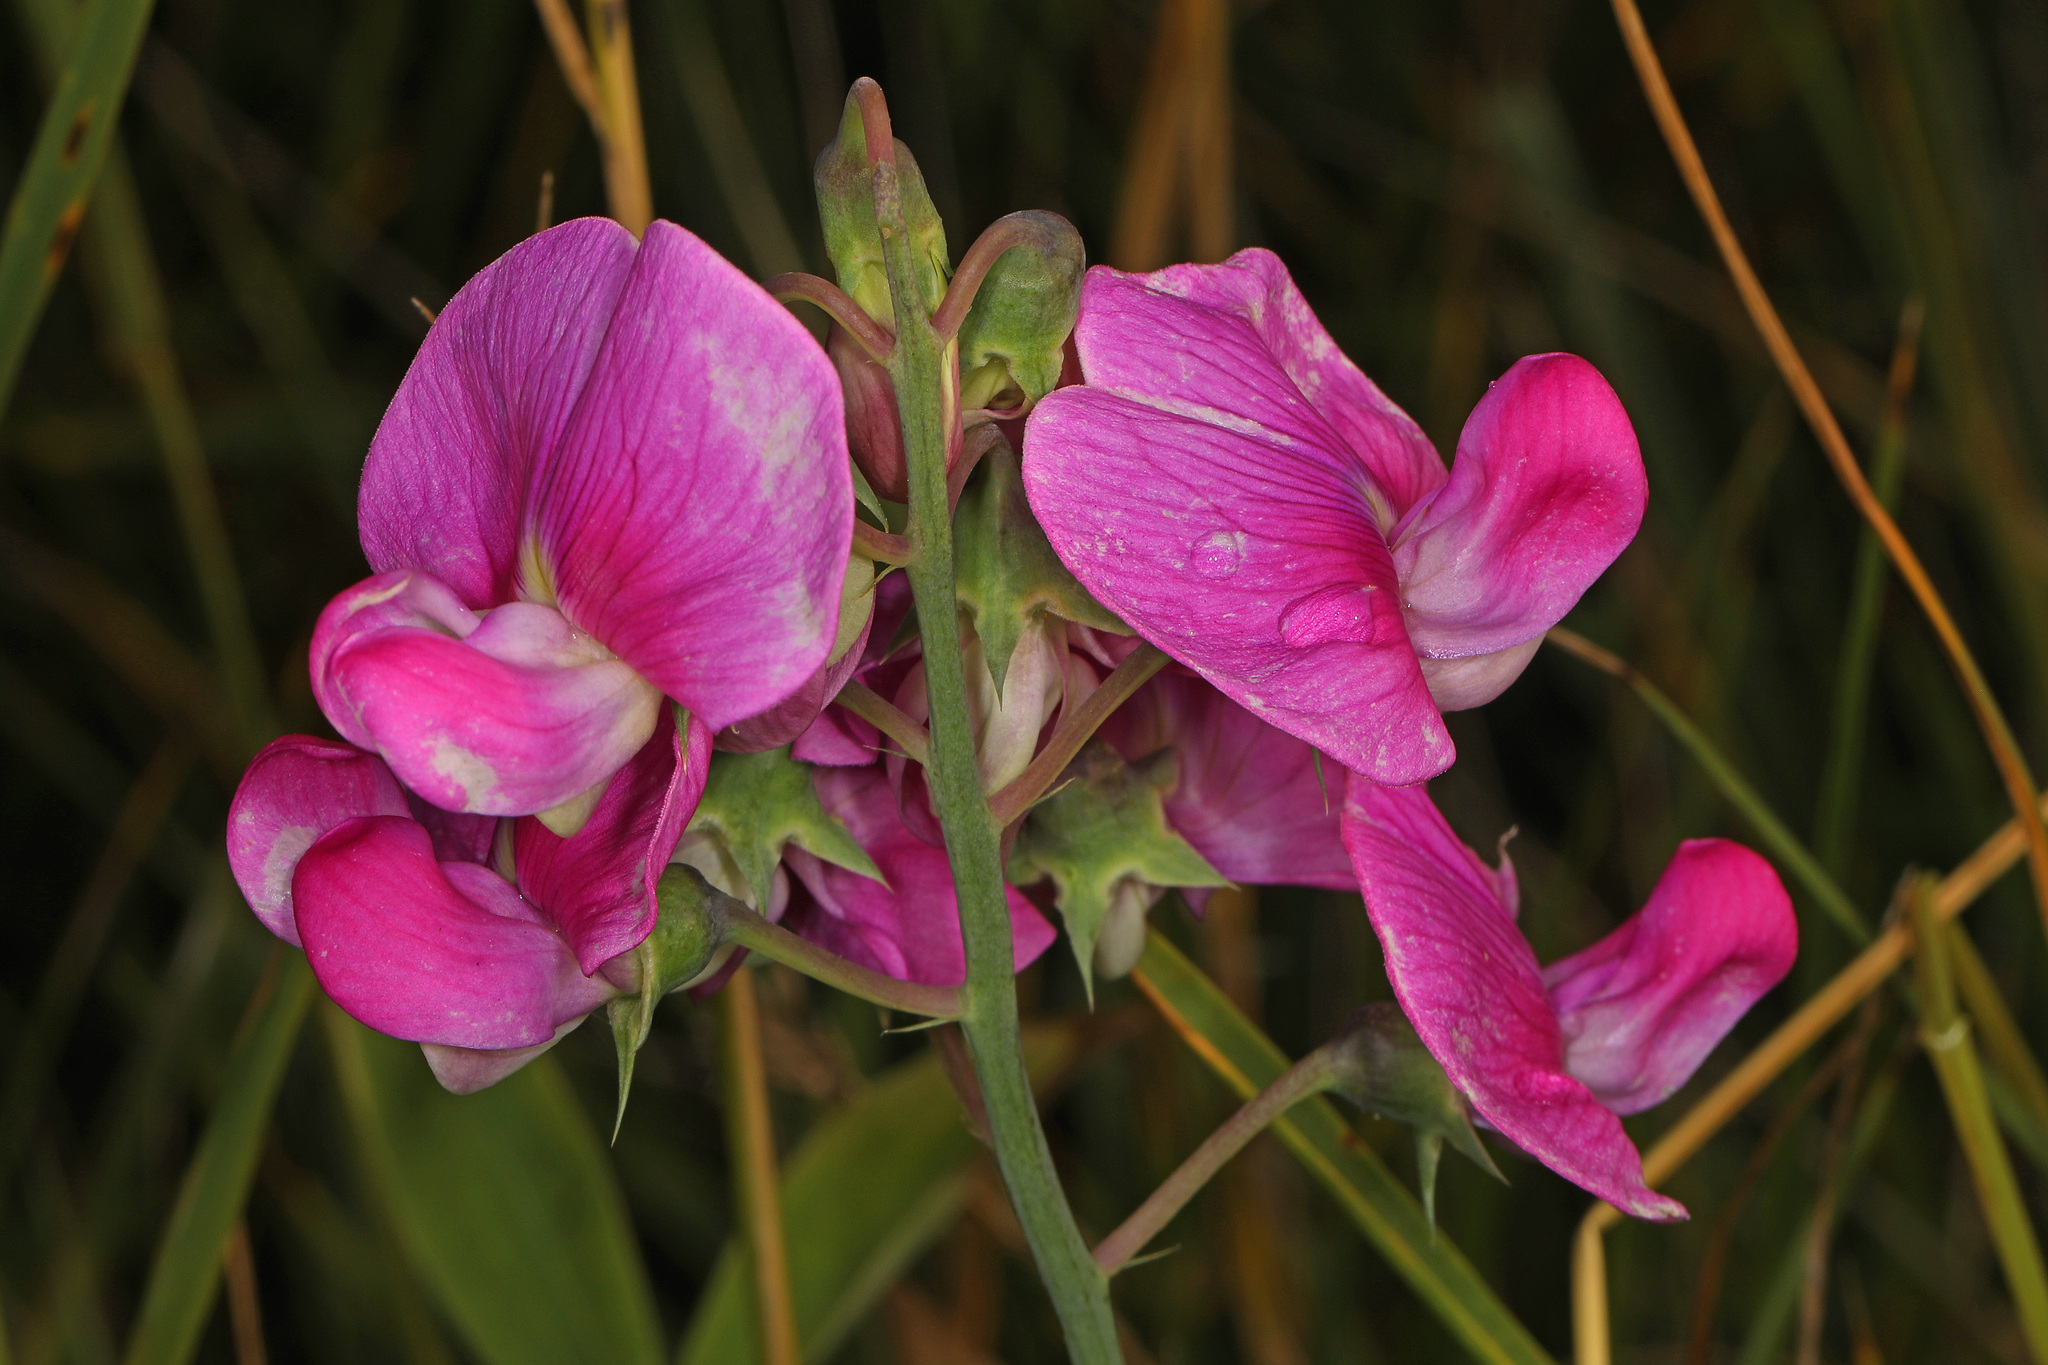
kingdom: Plantae
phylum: Tracheophyta
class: Magnoliopsida
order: Fabales
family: Fabaceae
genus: Lathyrus
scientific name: Lathyrus latifolius
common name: Perennial pea
